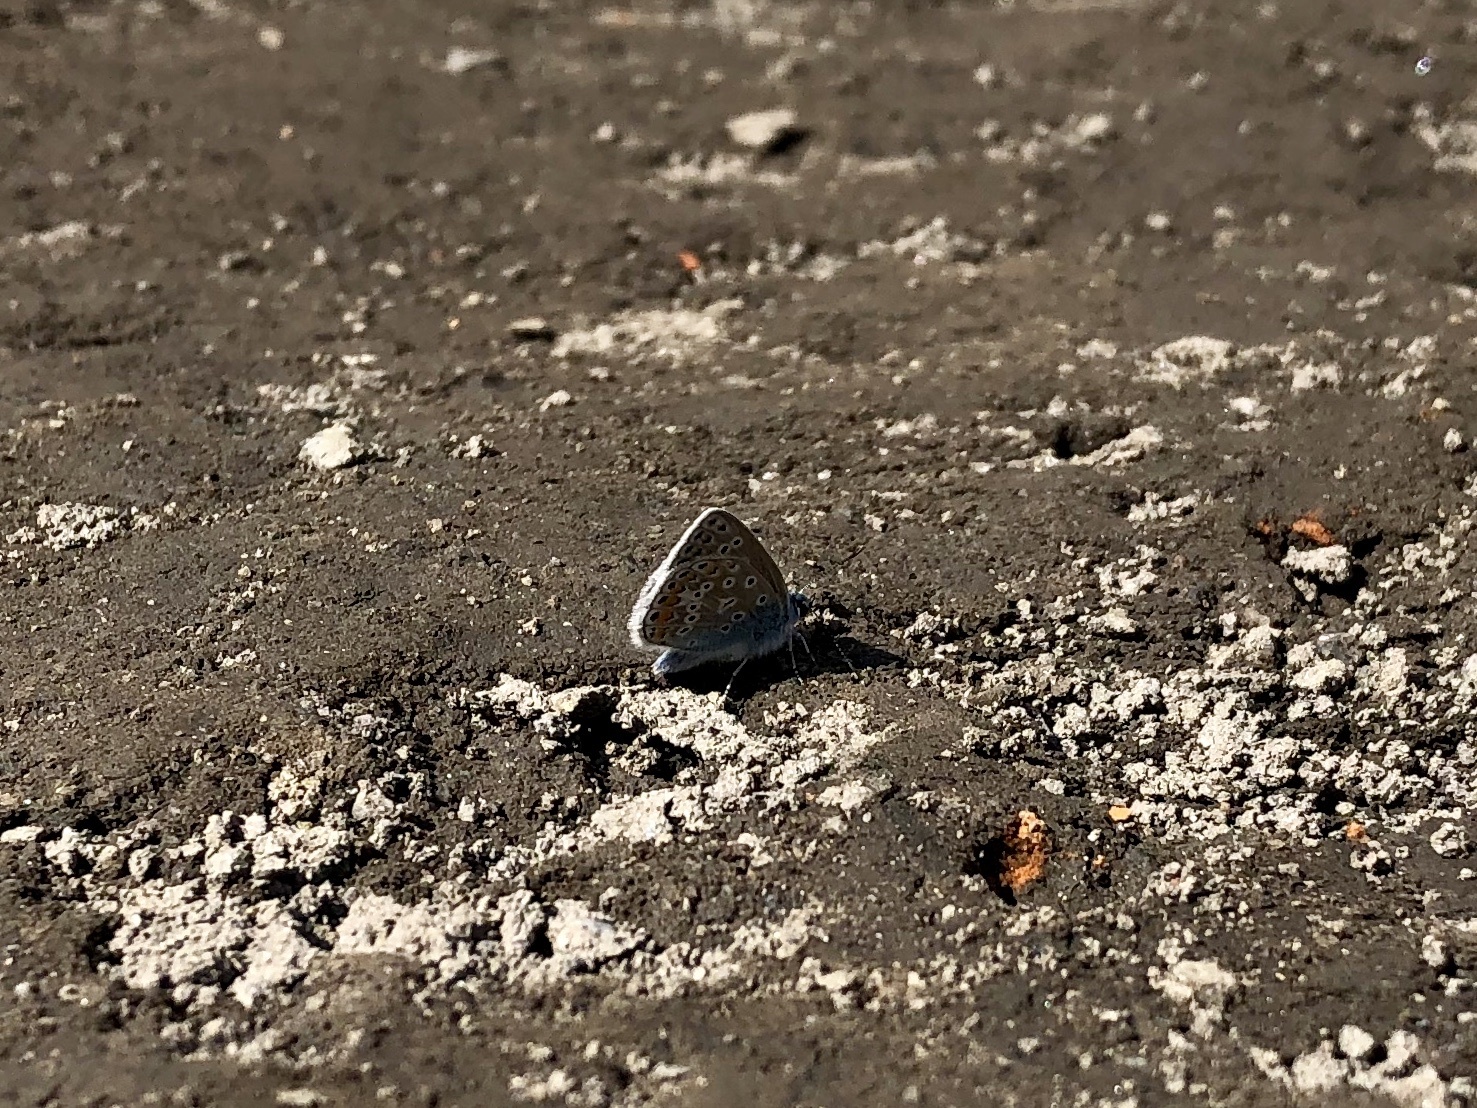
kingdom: Animalia
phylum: Arthropoda
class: Insecta
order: Lepidoptera
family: Lycaenidae
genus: Polyommatus
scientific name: Polyommatus icarus
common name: Common blue
